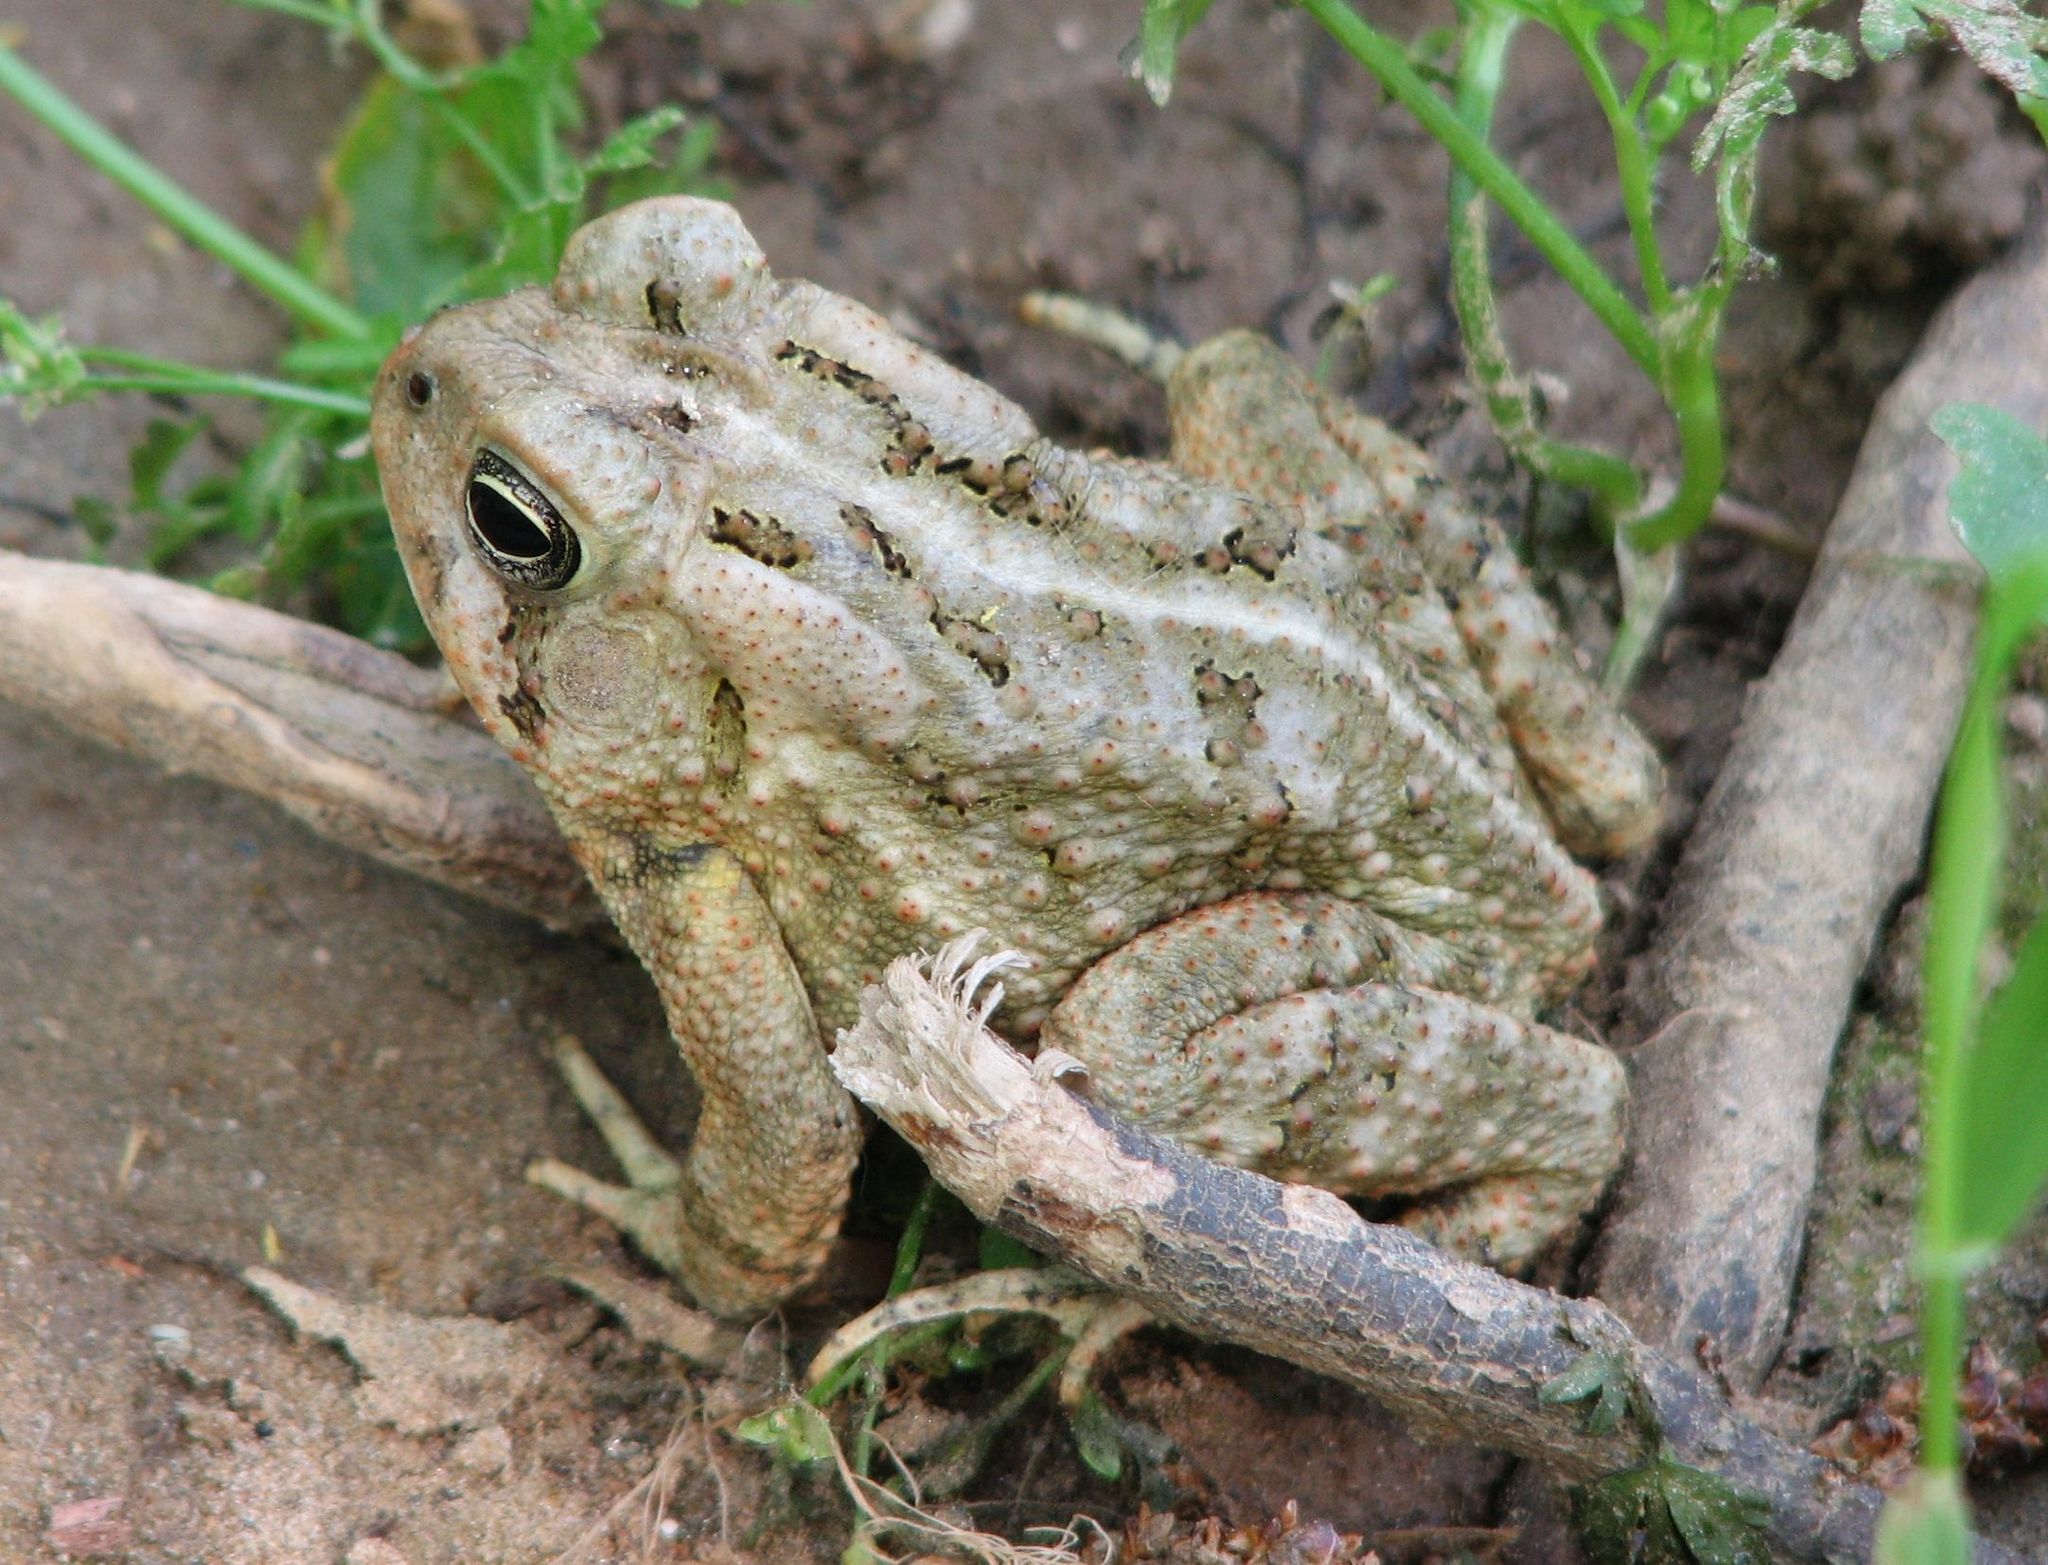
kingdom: Animalia
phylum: Chordata
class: Amphibia
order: Anura
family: Bufonidae
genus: Anaxyrus
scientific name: Anaxyrus fowleri
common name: Fowler's toad
